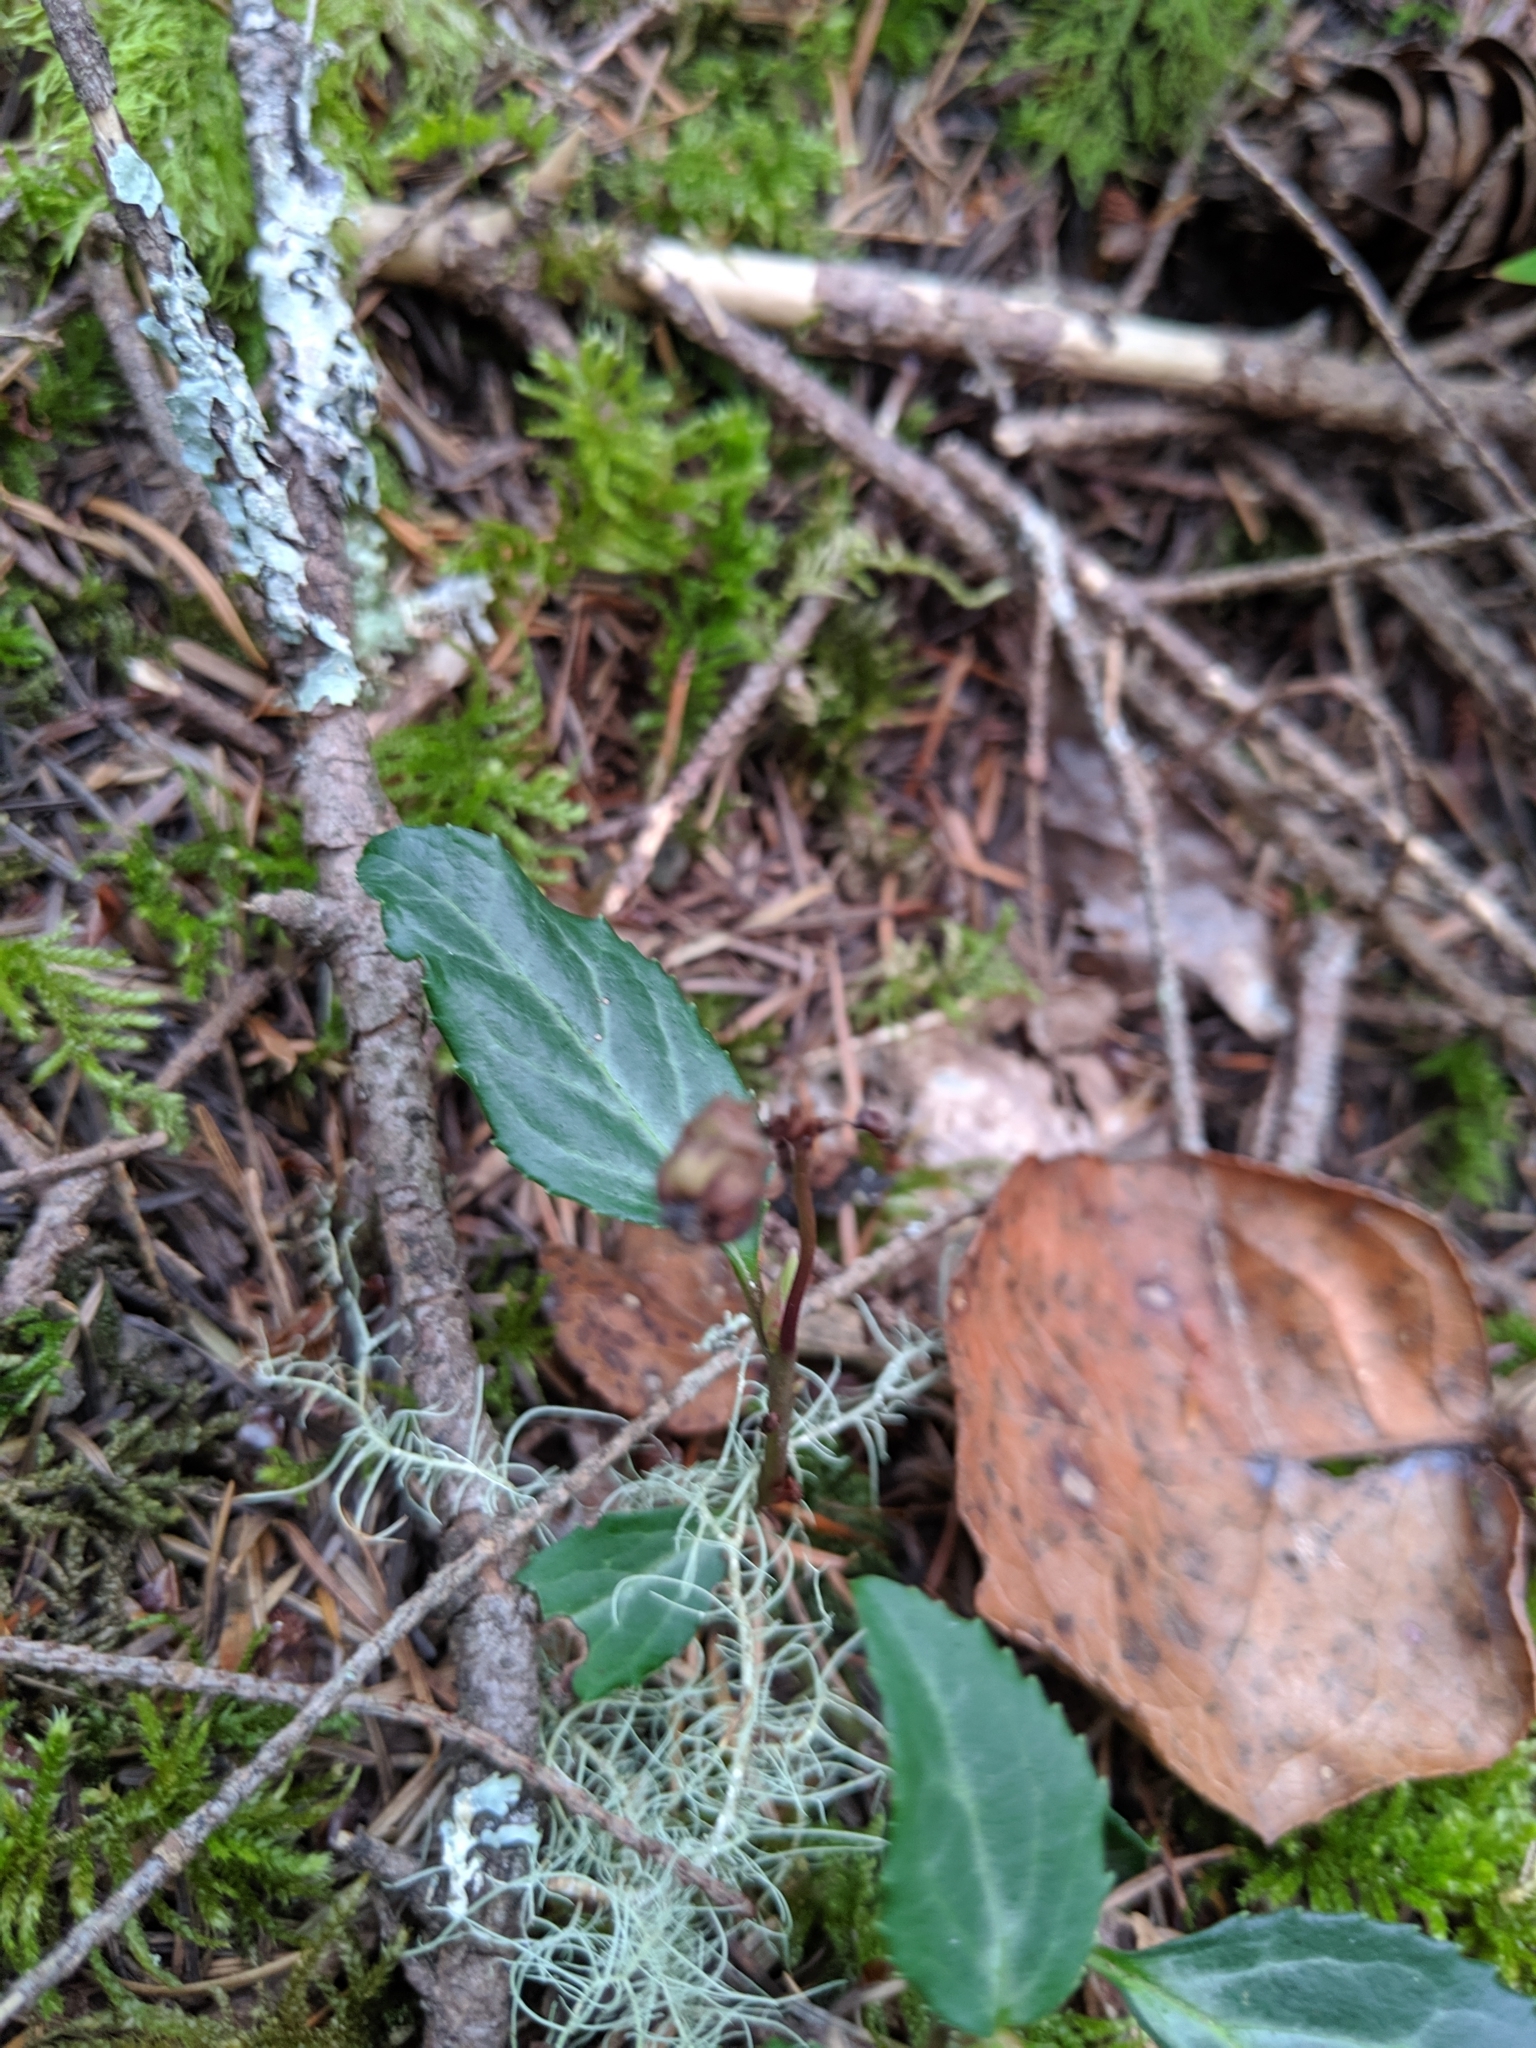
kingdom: Plantae
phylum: Tracheophyta
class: Magnoliopsida
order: Ericales
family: Ericaceae
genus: Pyrola
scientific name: Pyrola picta
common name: White-vein wintergreen
